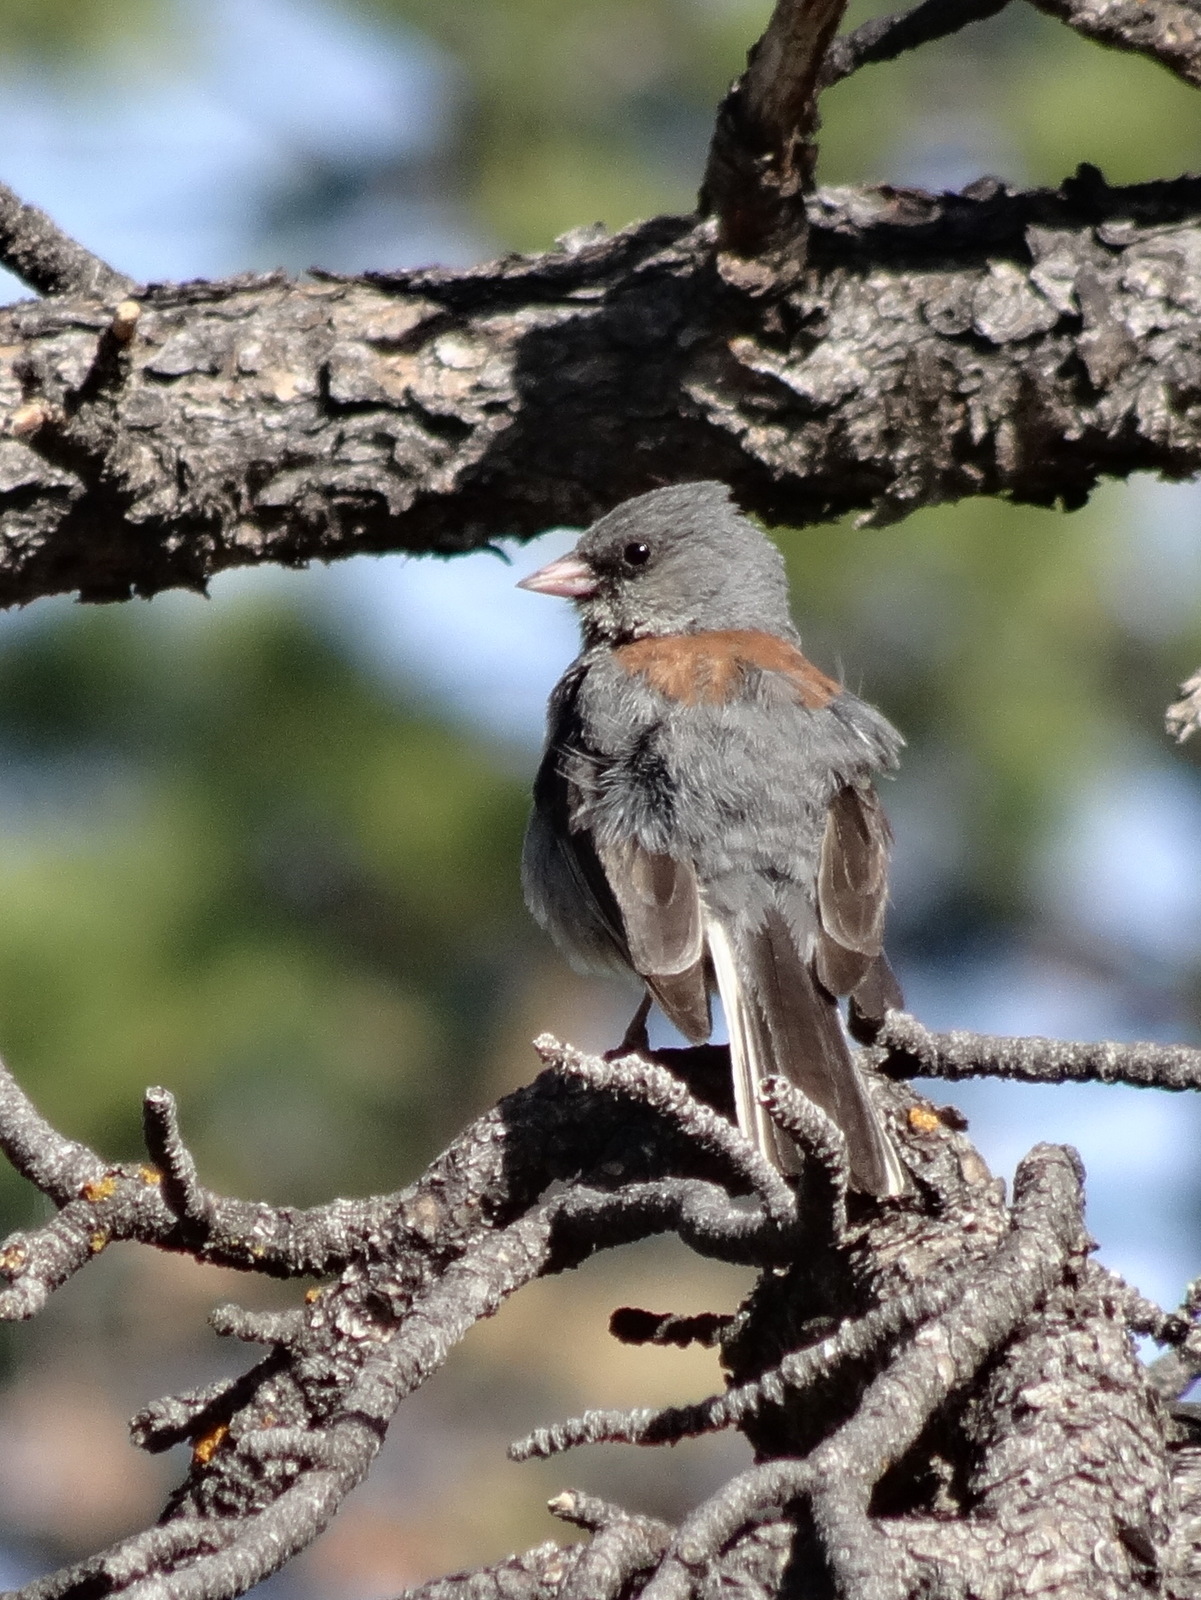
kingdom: Animalia
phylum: Chordata
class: Aves
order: Passeriformes
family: Passerellidae
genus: Junco
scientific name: Junco hyemalis
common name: Dark-eyed junco
